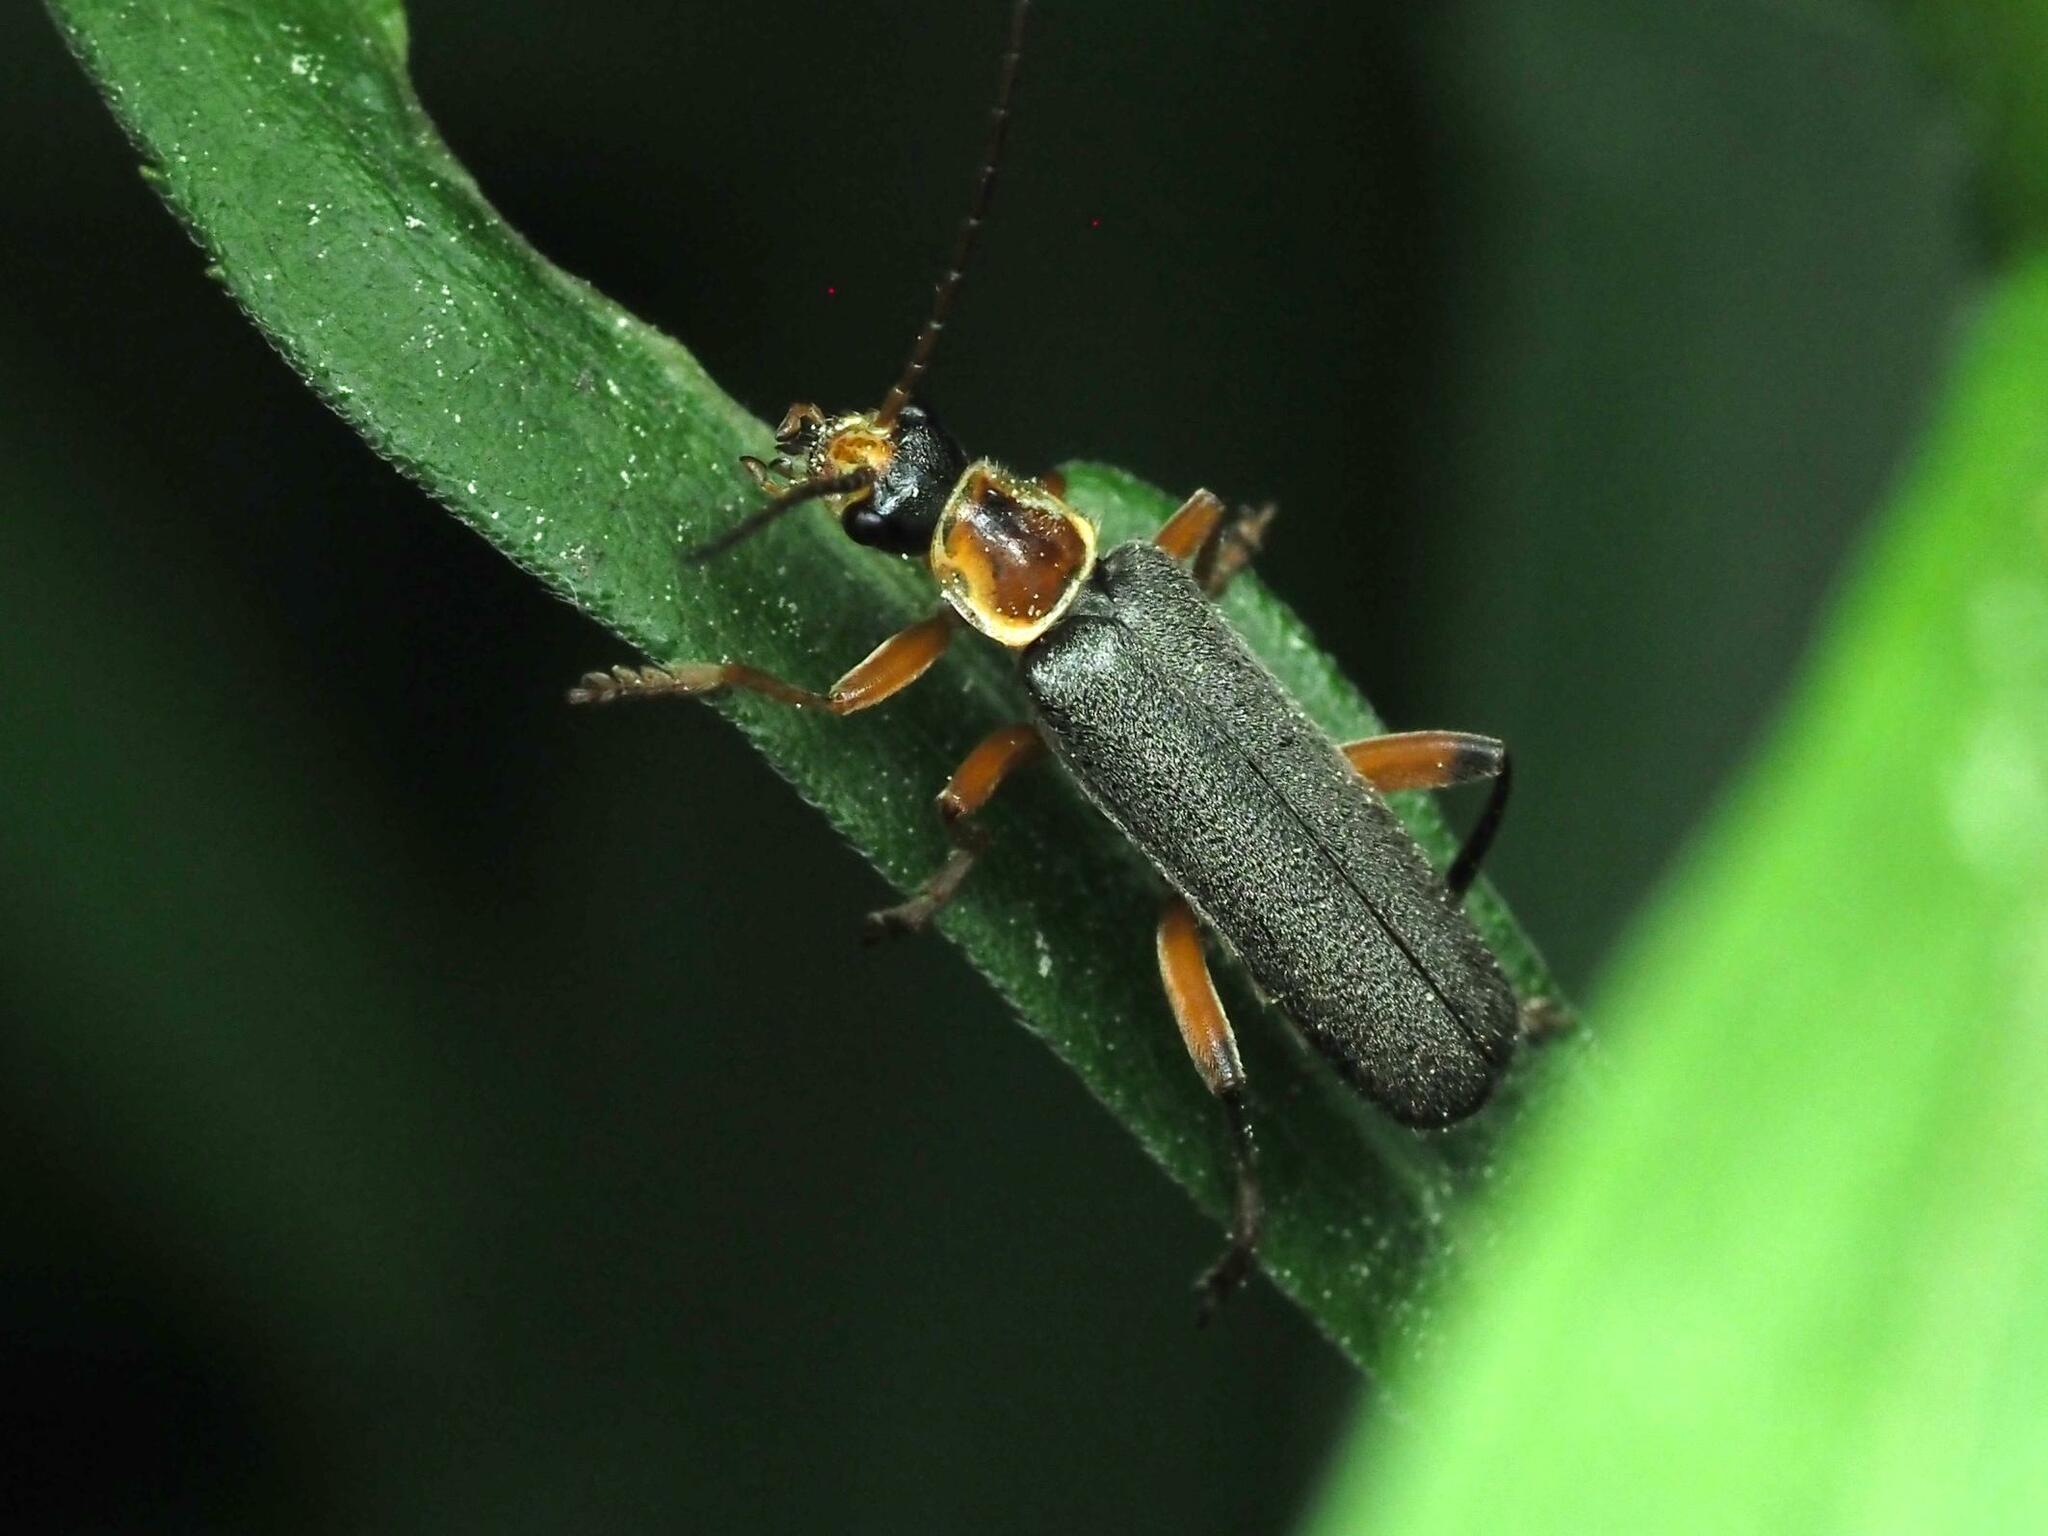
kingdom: Animalia
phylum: Arthropoda
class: Insecta
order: Coleoptera
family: Cantharidae
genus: Cantharis
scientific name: Cantharis nigricans
